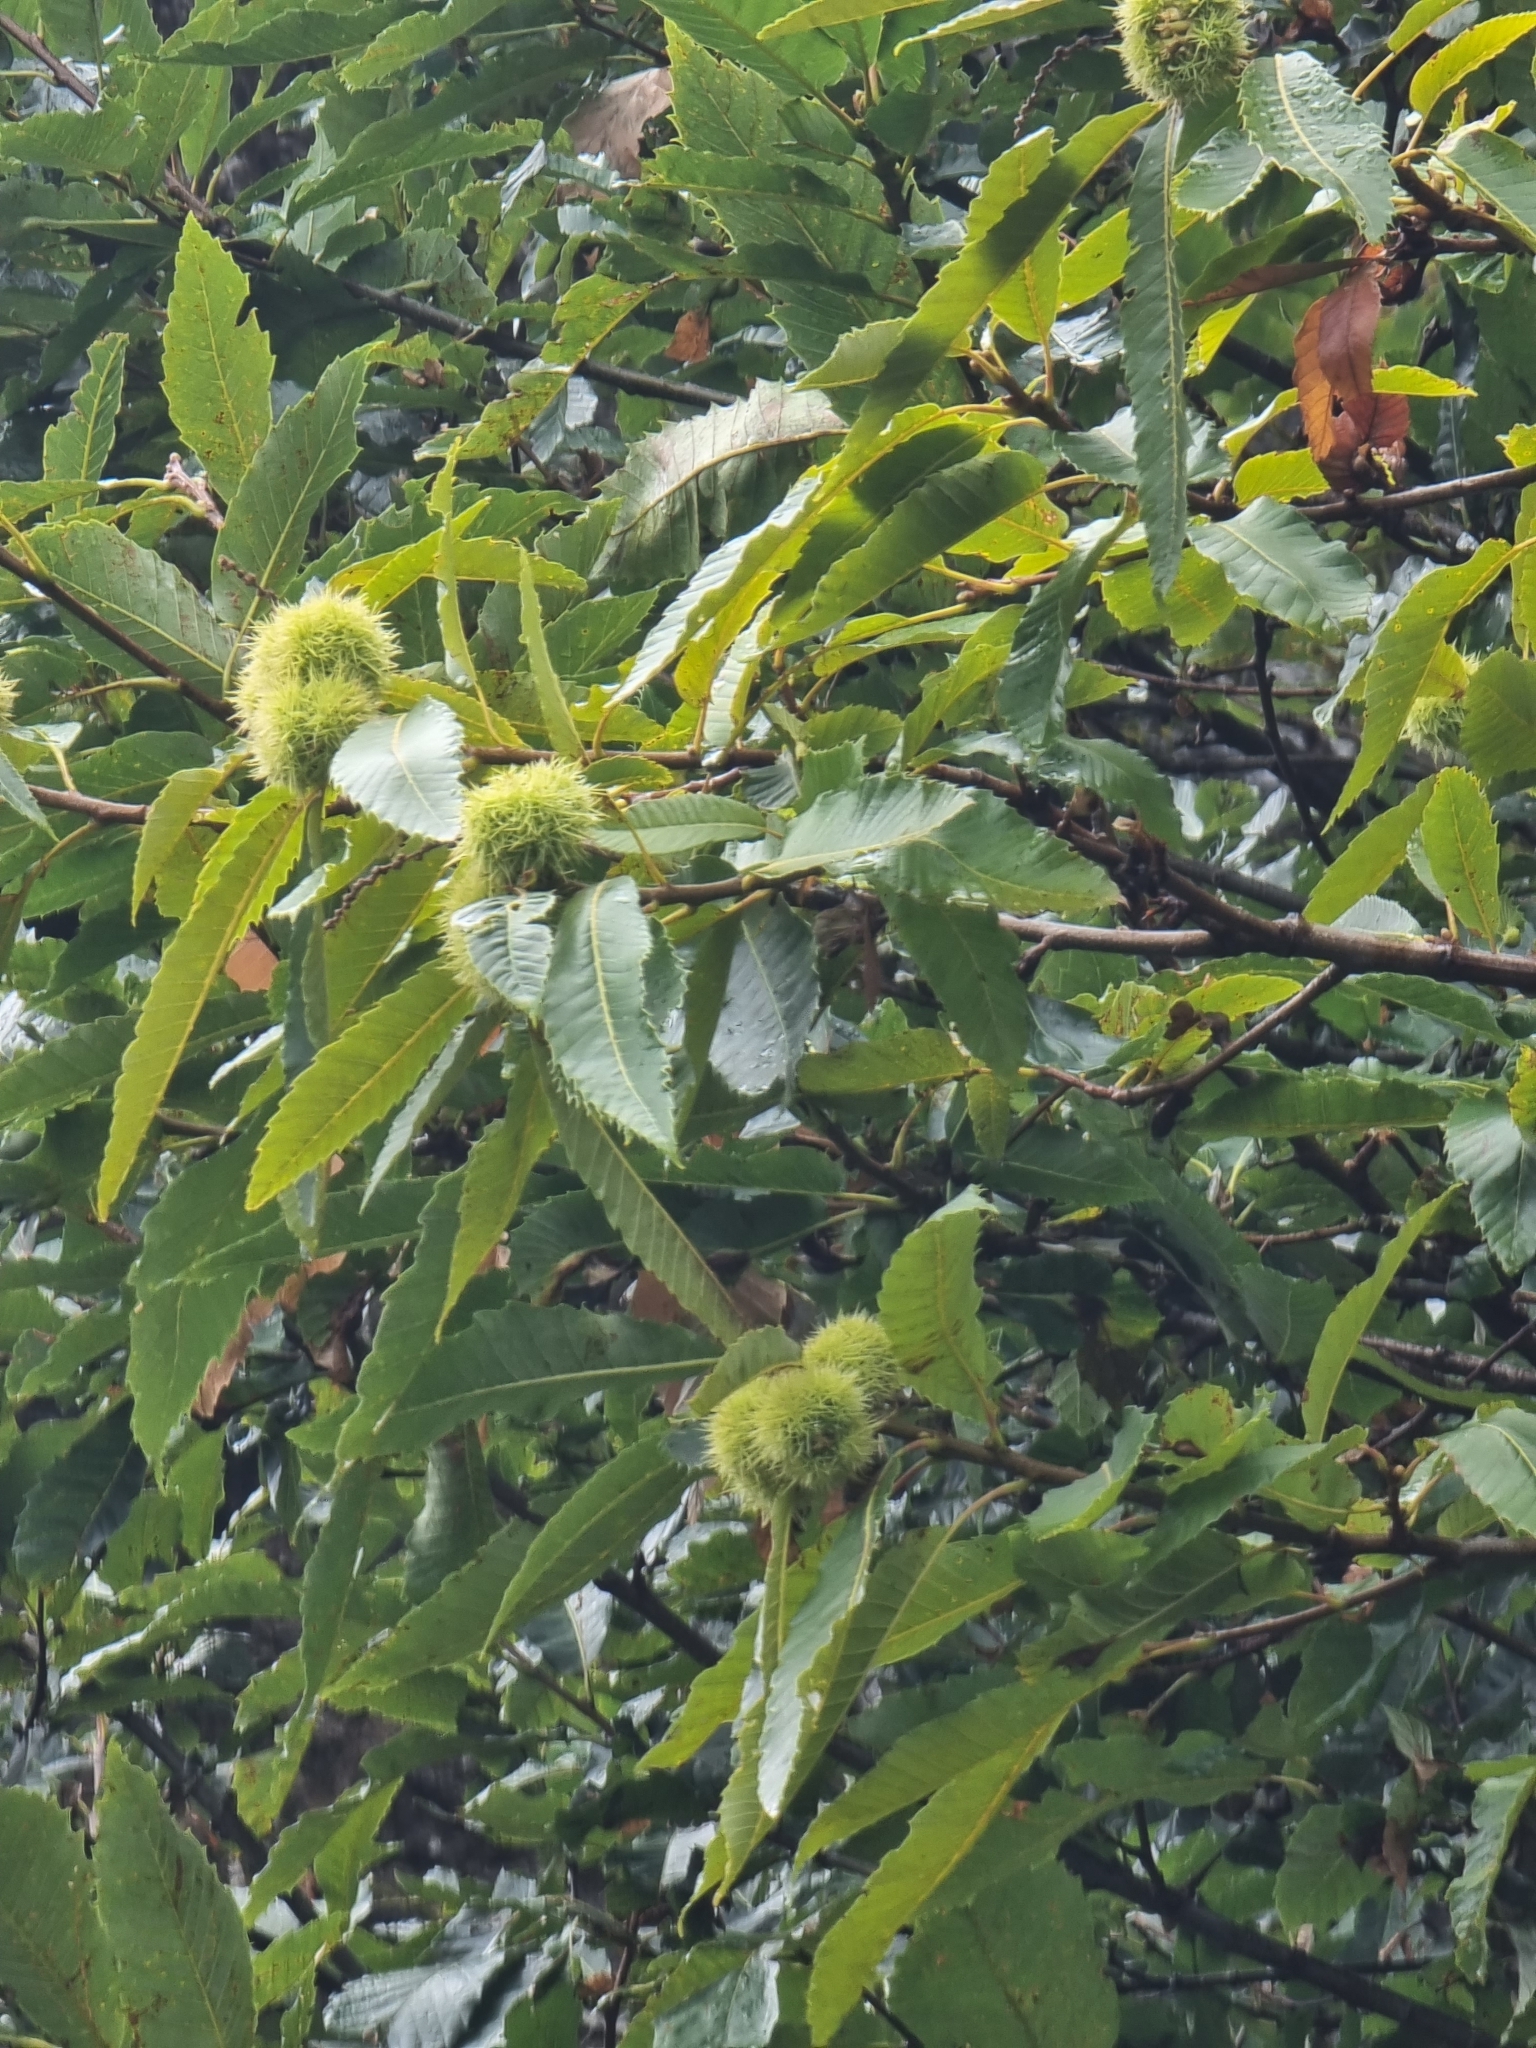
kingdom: Plantae
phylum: Tracheophyta
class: Magnoliopsida
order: Fagales
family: Fagaceae
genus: Castanea
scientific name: Castanea sativa
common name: Sweet chestnut
